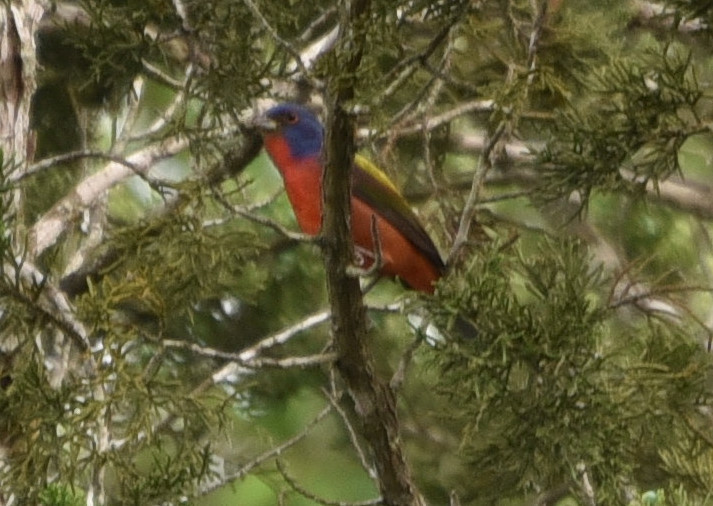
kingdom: Animalia
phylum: Chordata
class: Aves
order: Passeriformes
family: Cardinalidae
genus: Passerina
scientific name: Passerina ciris
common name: Painted bunting
